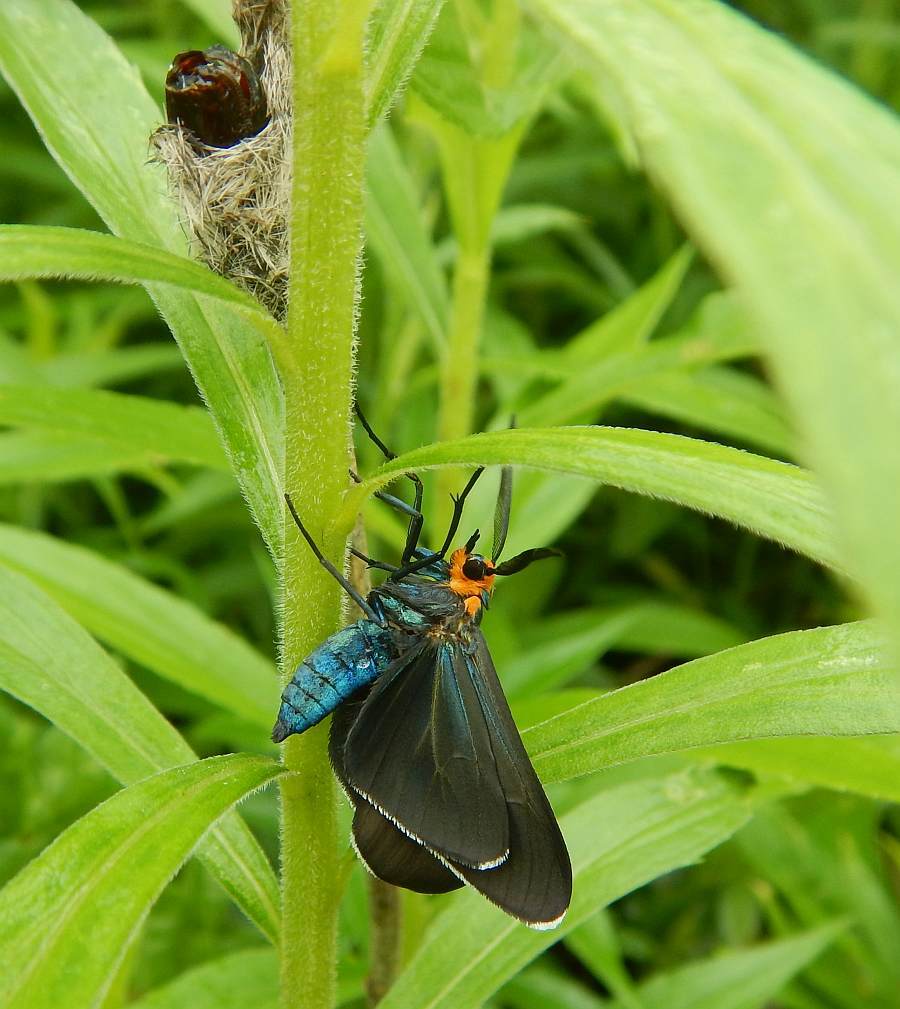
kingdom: Animalia
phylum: Arthropoda
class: Insecta
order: Lepidoptera
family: Erebidae
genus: Ctenucha
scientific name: Ctenucha virginica
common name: Virginia ctenucha moth
